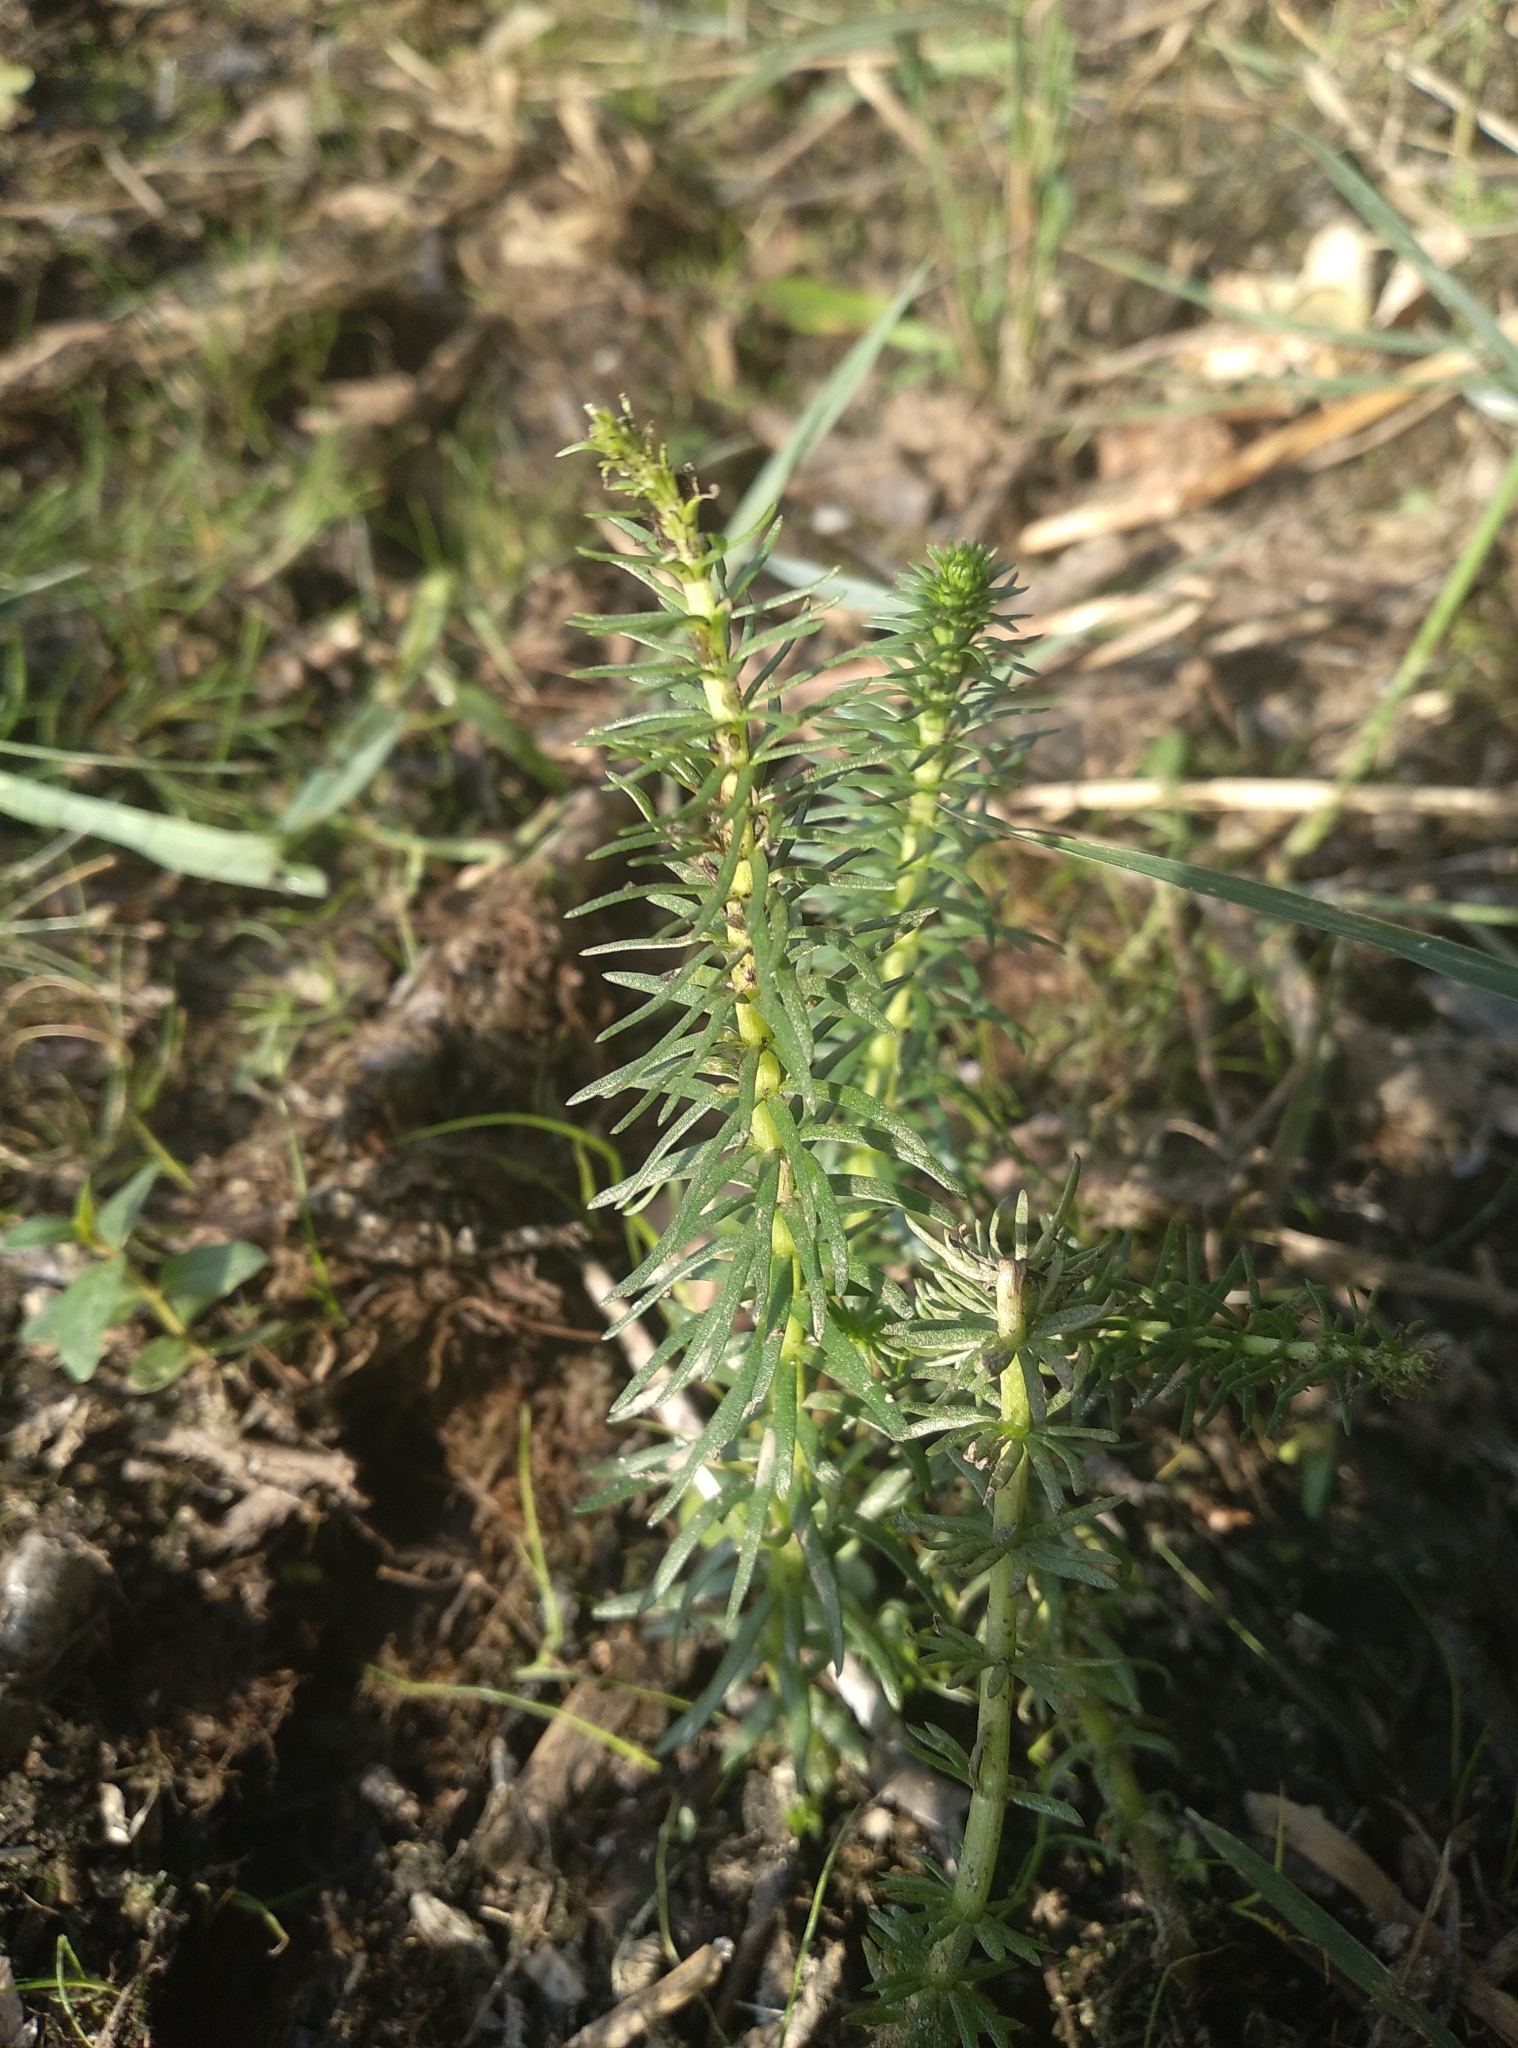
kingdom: Plantae
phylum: Tracheophyta
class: Magnoliopsida
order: Lamiales
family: Plantaginaceae
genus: Hippuris
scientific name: Hippuris vulgaris
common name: Mare's-tail
